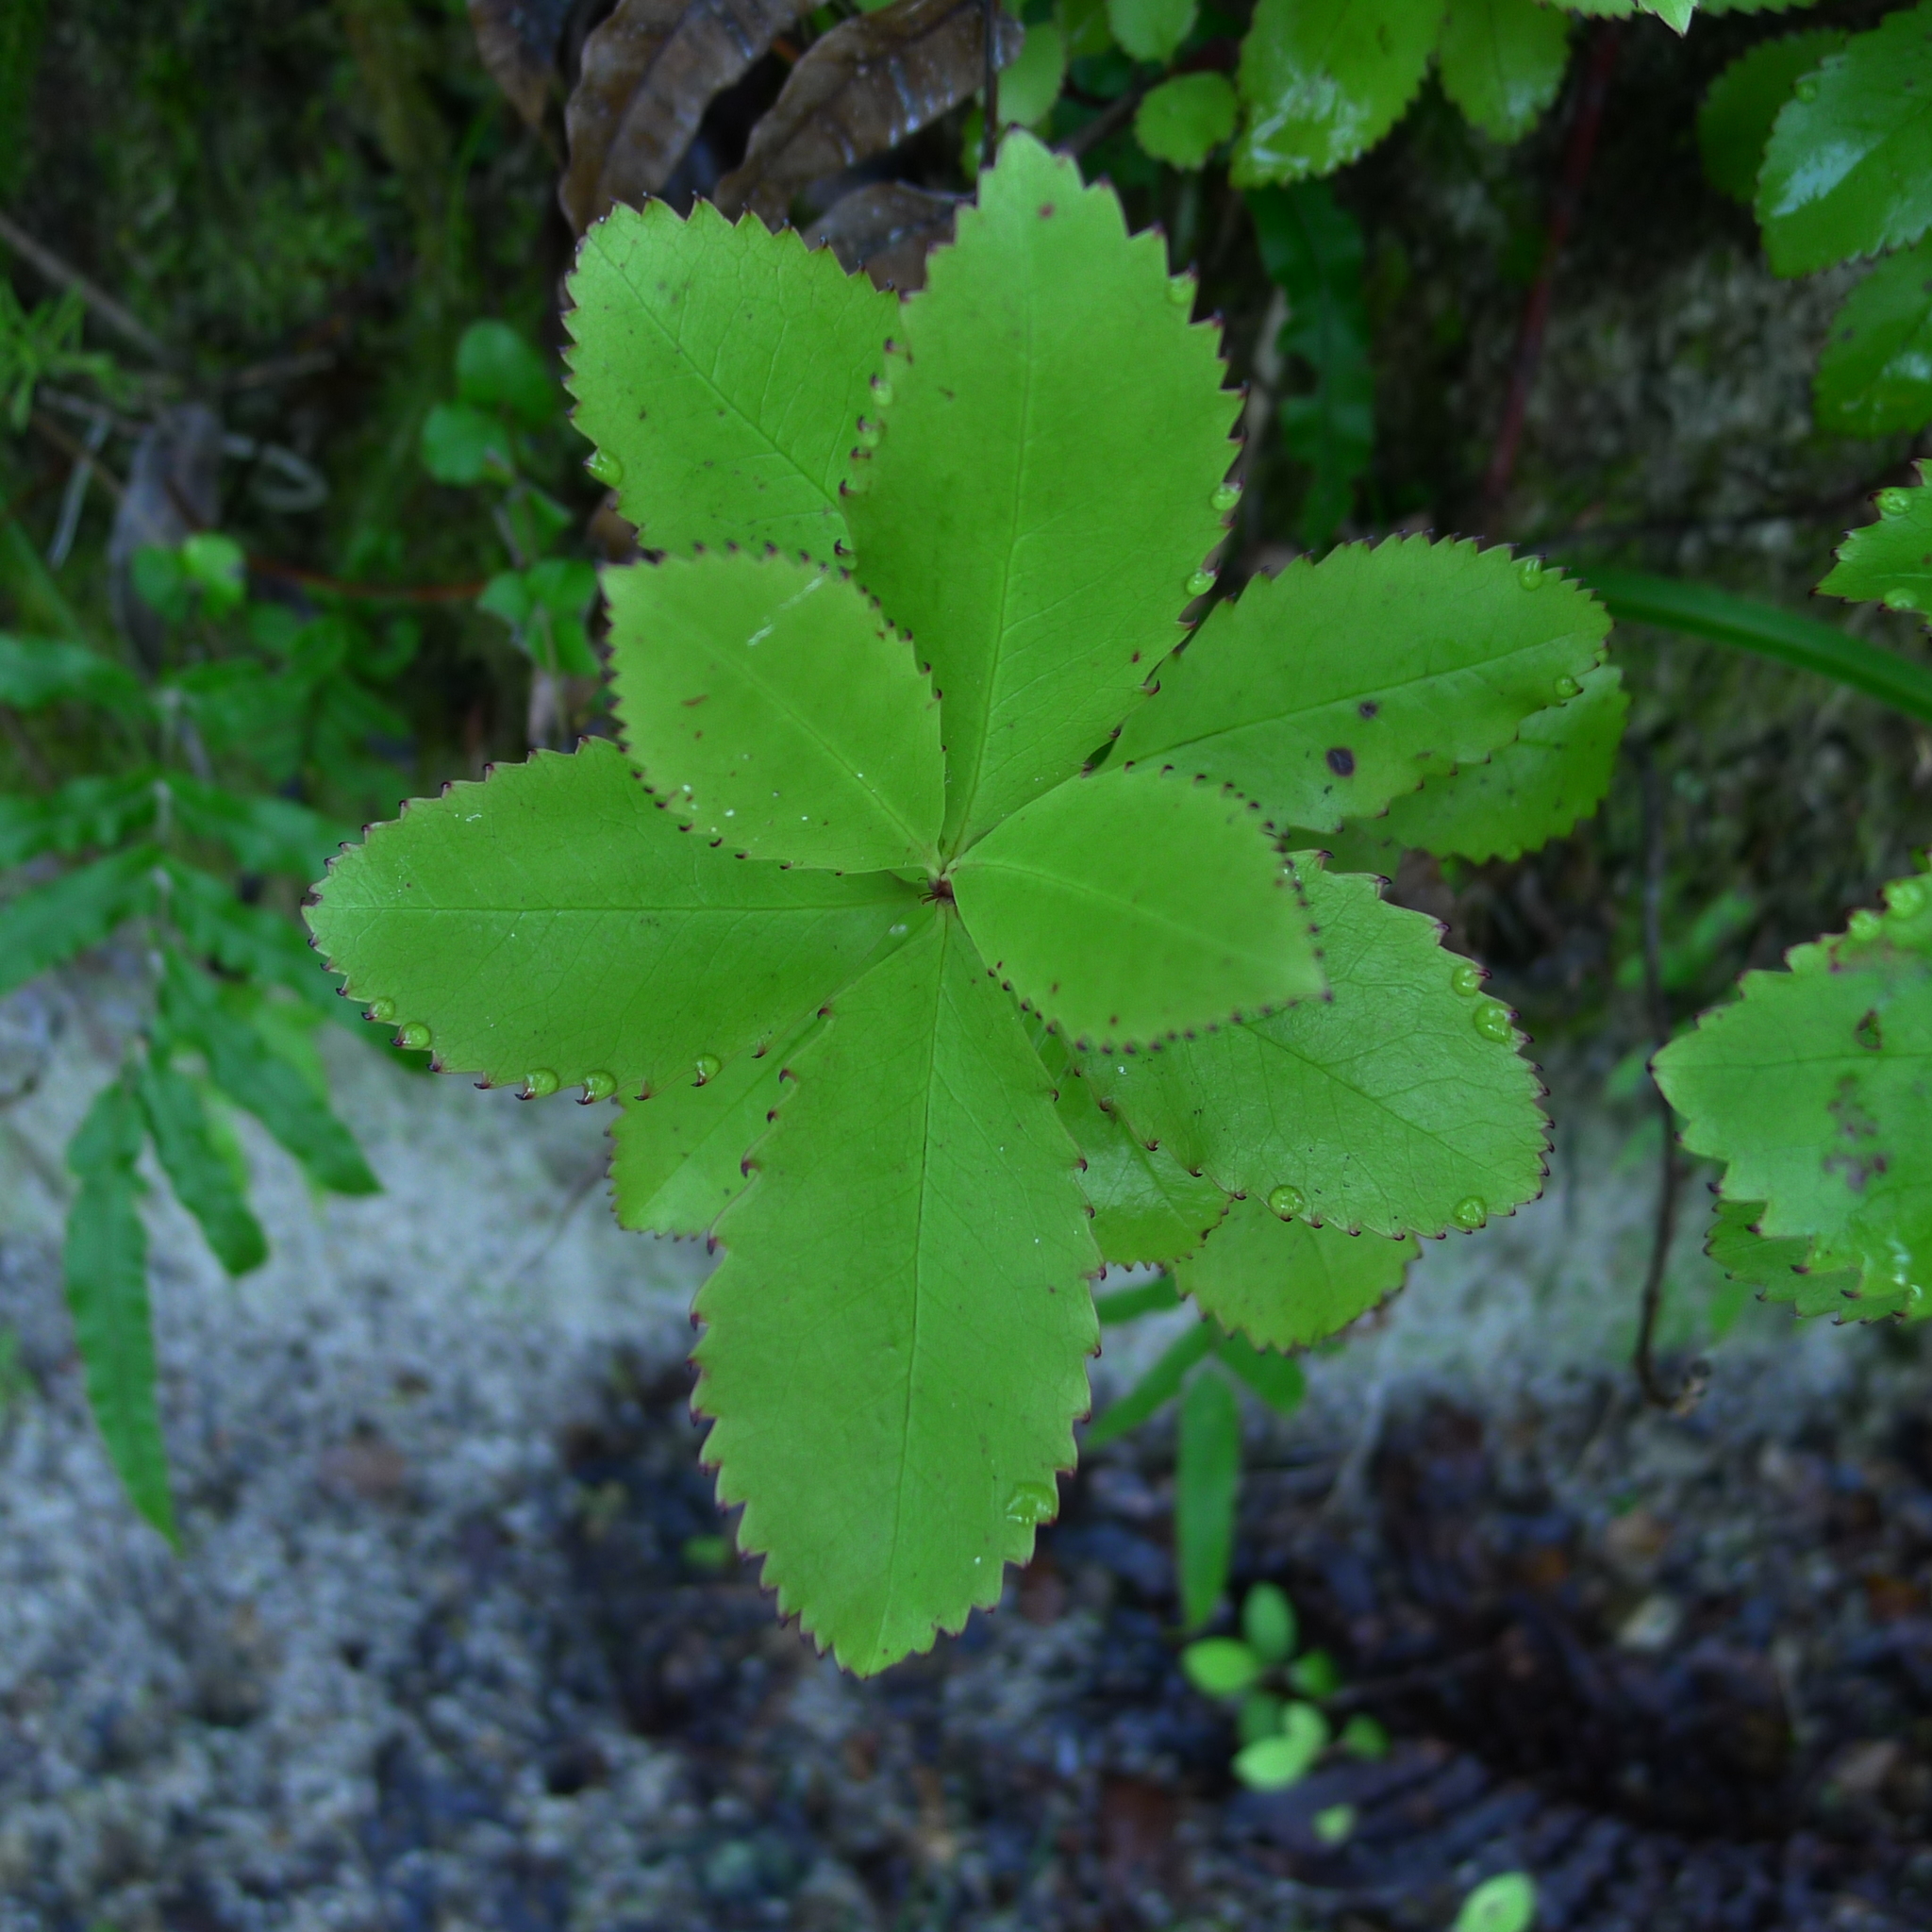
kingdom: Plantae
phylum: Tracheophyta
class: Magnoliopsida
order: Chloranthales
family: Chloranthaceae
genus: Ascarina
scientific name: Ascarina lucida
